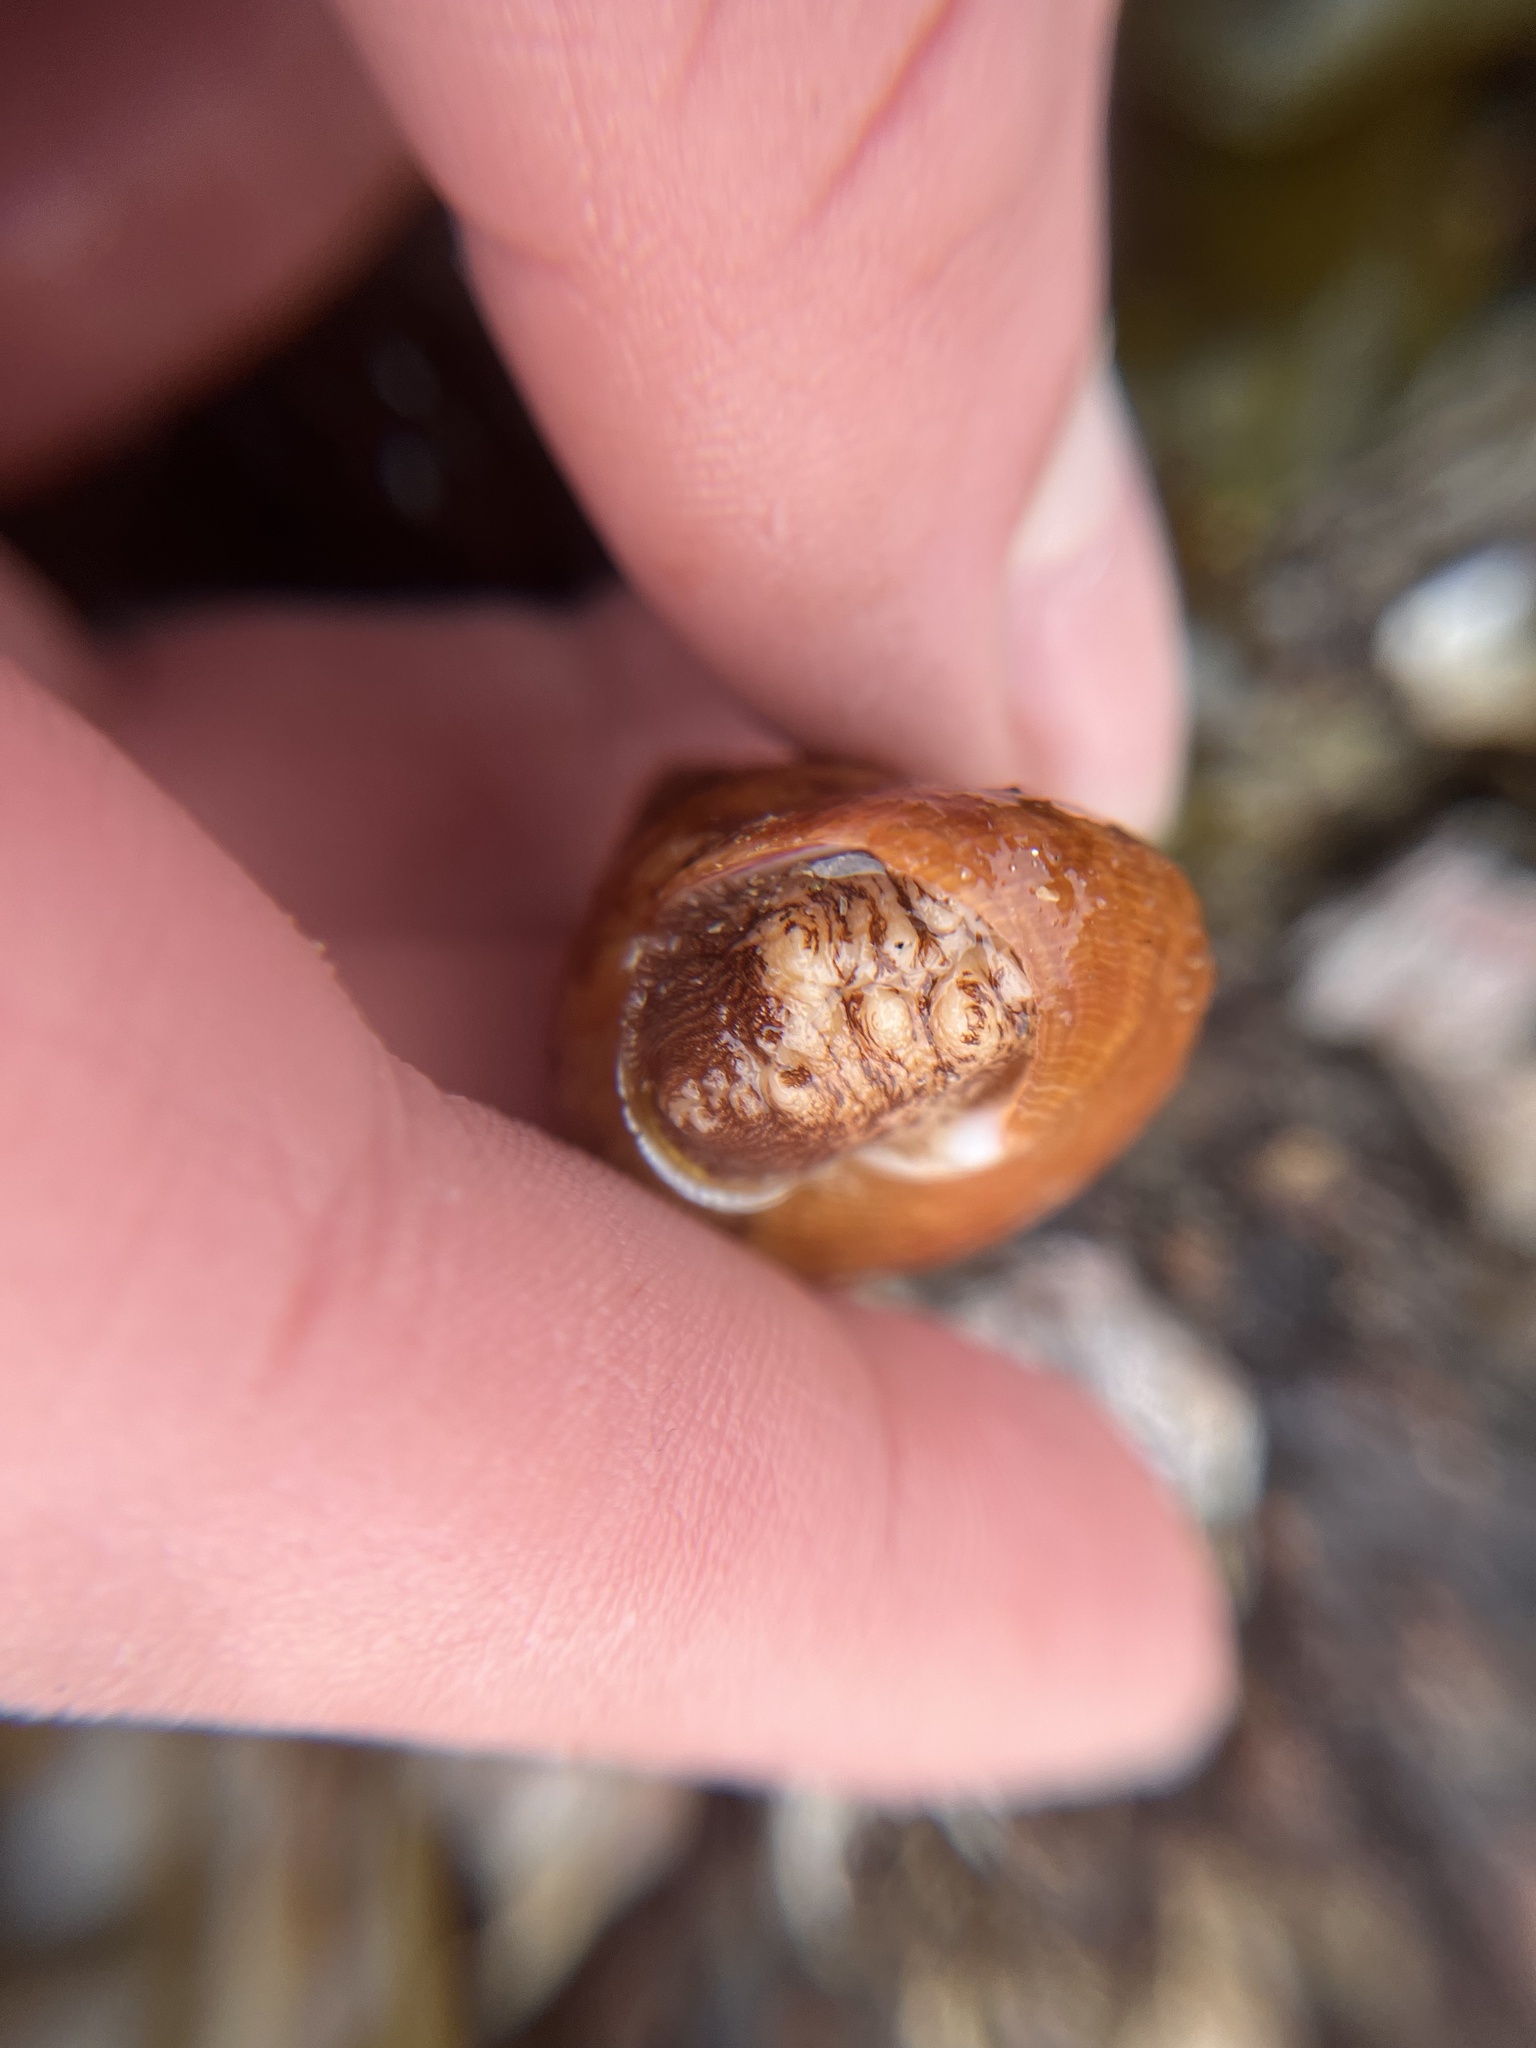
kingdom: Animalia
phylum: Mollusca
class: Gastropoda
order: Trochida
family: Calliostomatidae
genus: Calliostoma
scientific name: Calliostoma gloriosum
